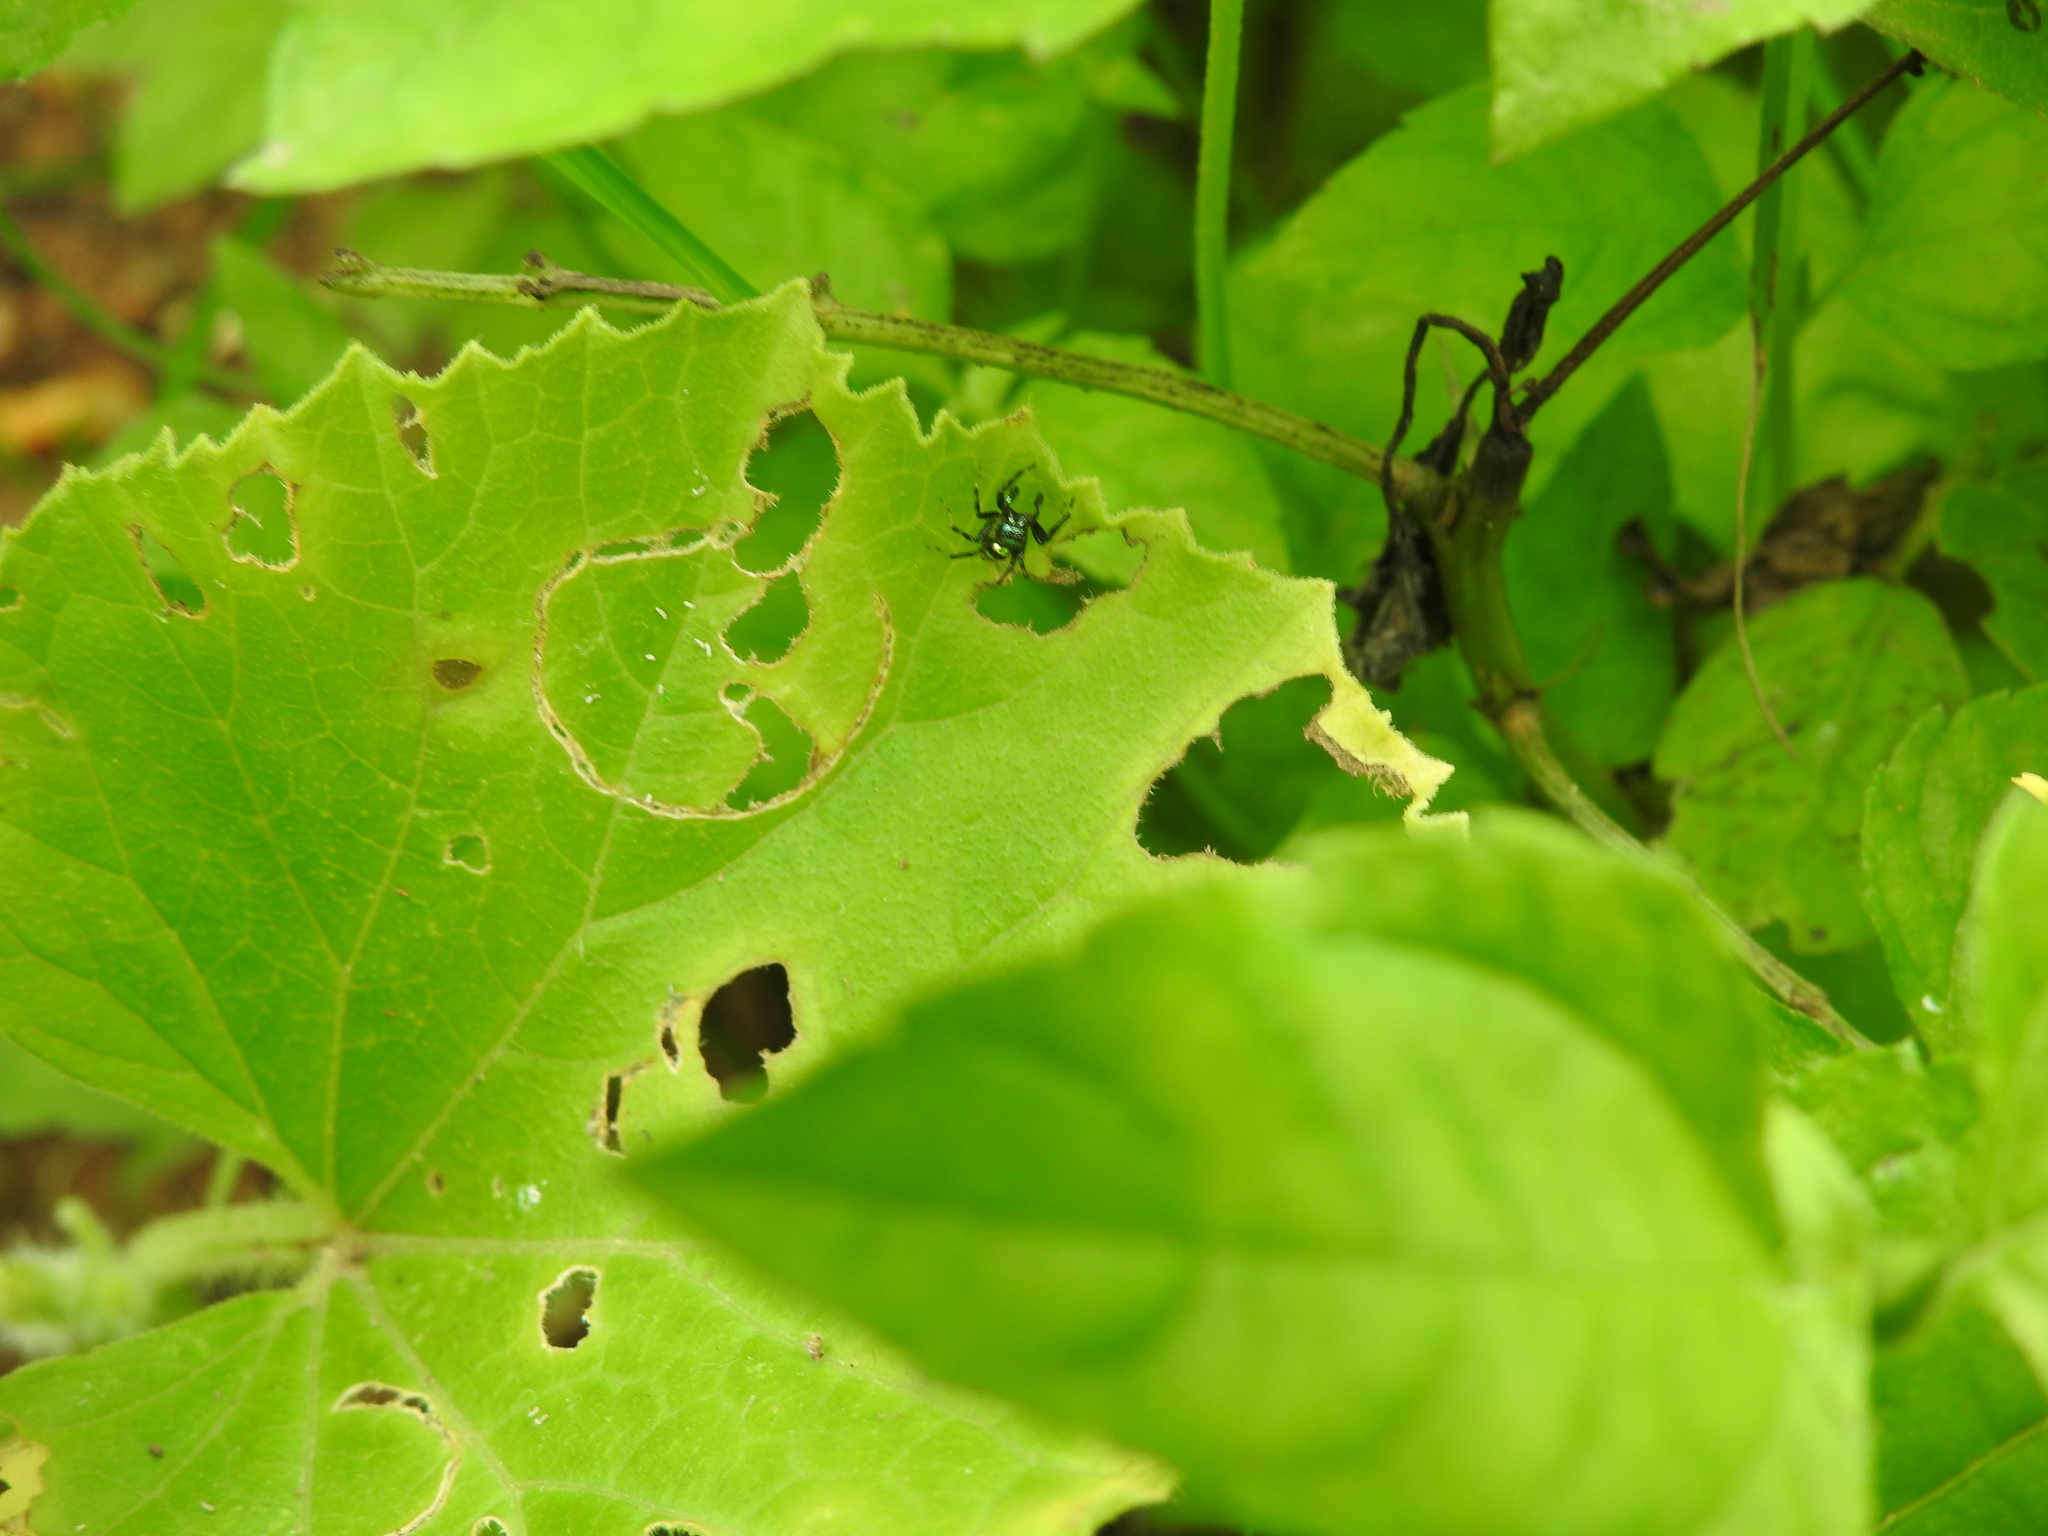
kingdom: Animalia
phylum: Arthropoda
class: Arachnida
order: Araneae
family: Salticidae
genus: Phintella
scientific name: Phintella vittata
